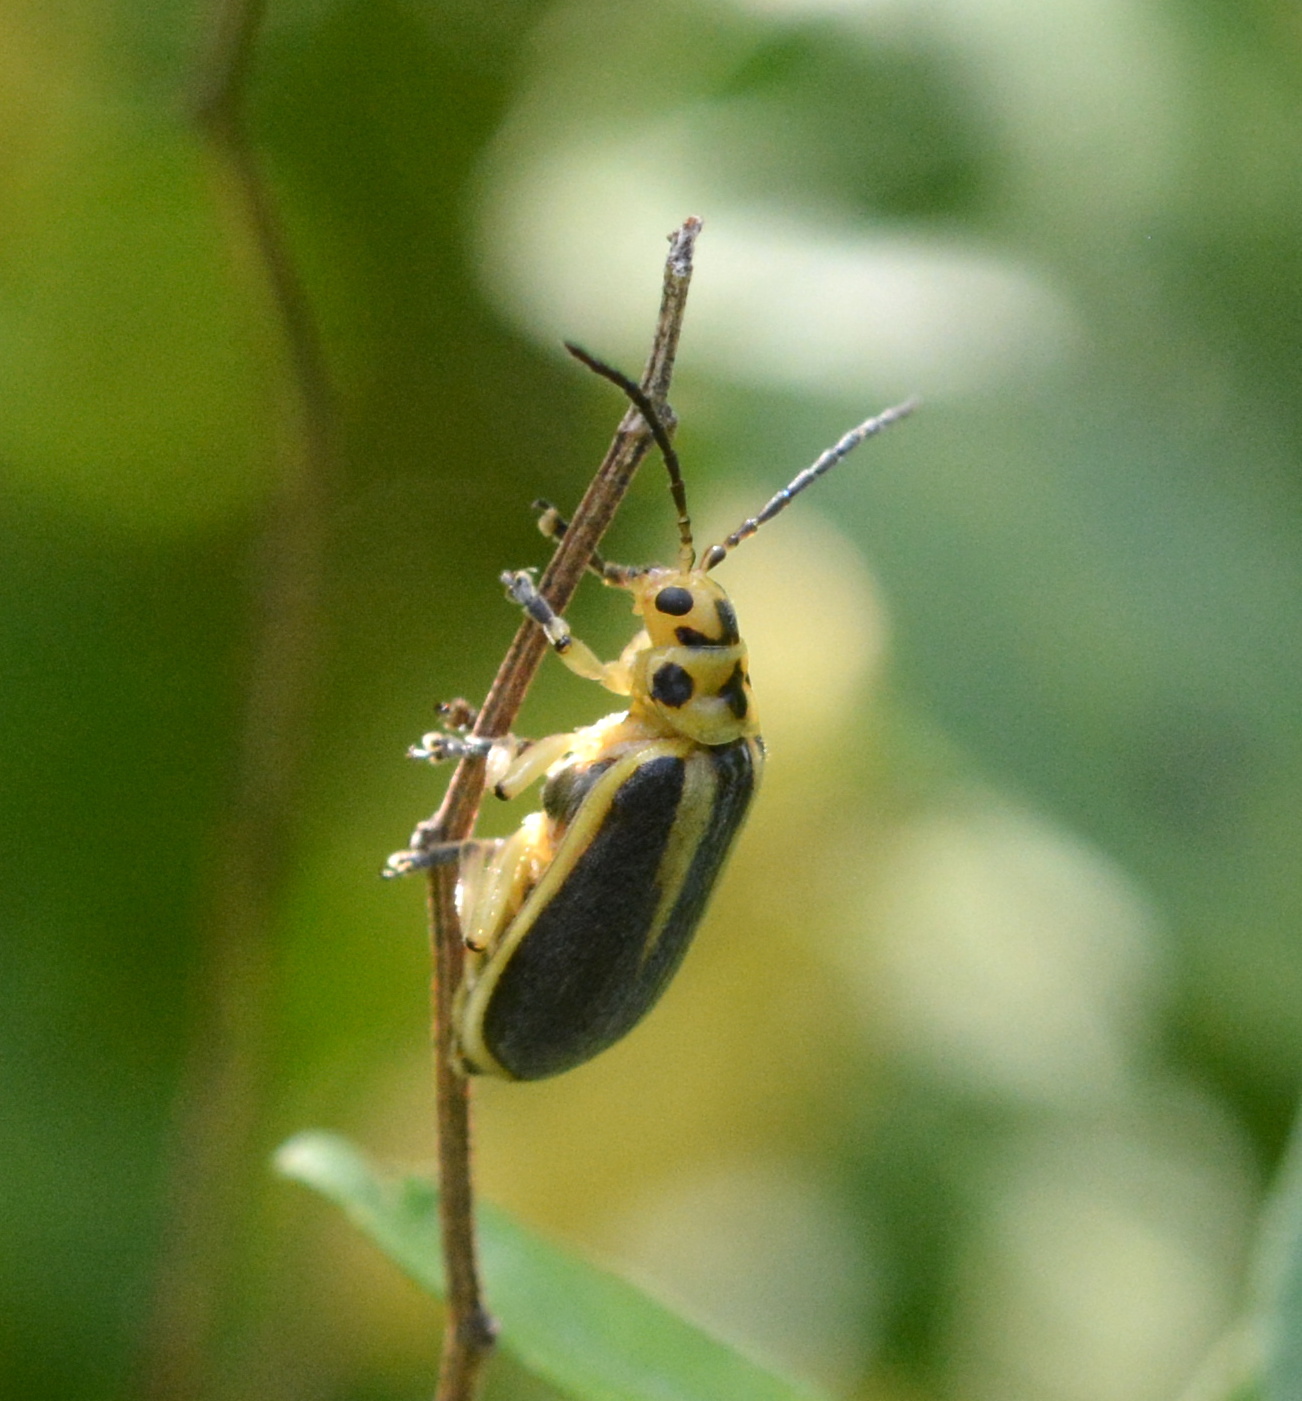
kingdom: Animalia
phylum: Arthropoda
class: Insecta
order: Coleoptera
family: Chrysomelidae
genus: Trirhabda
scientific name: Trirhabda bacharidis
